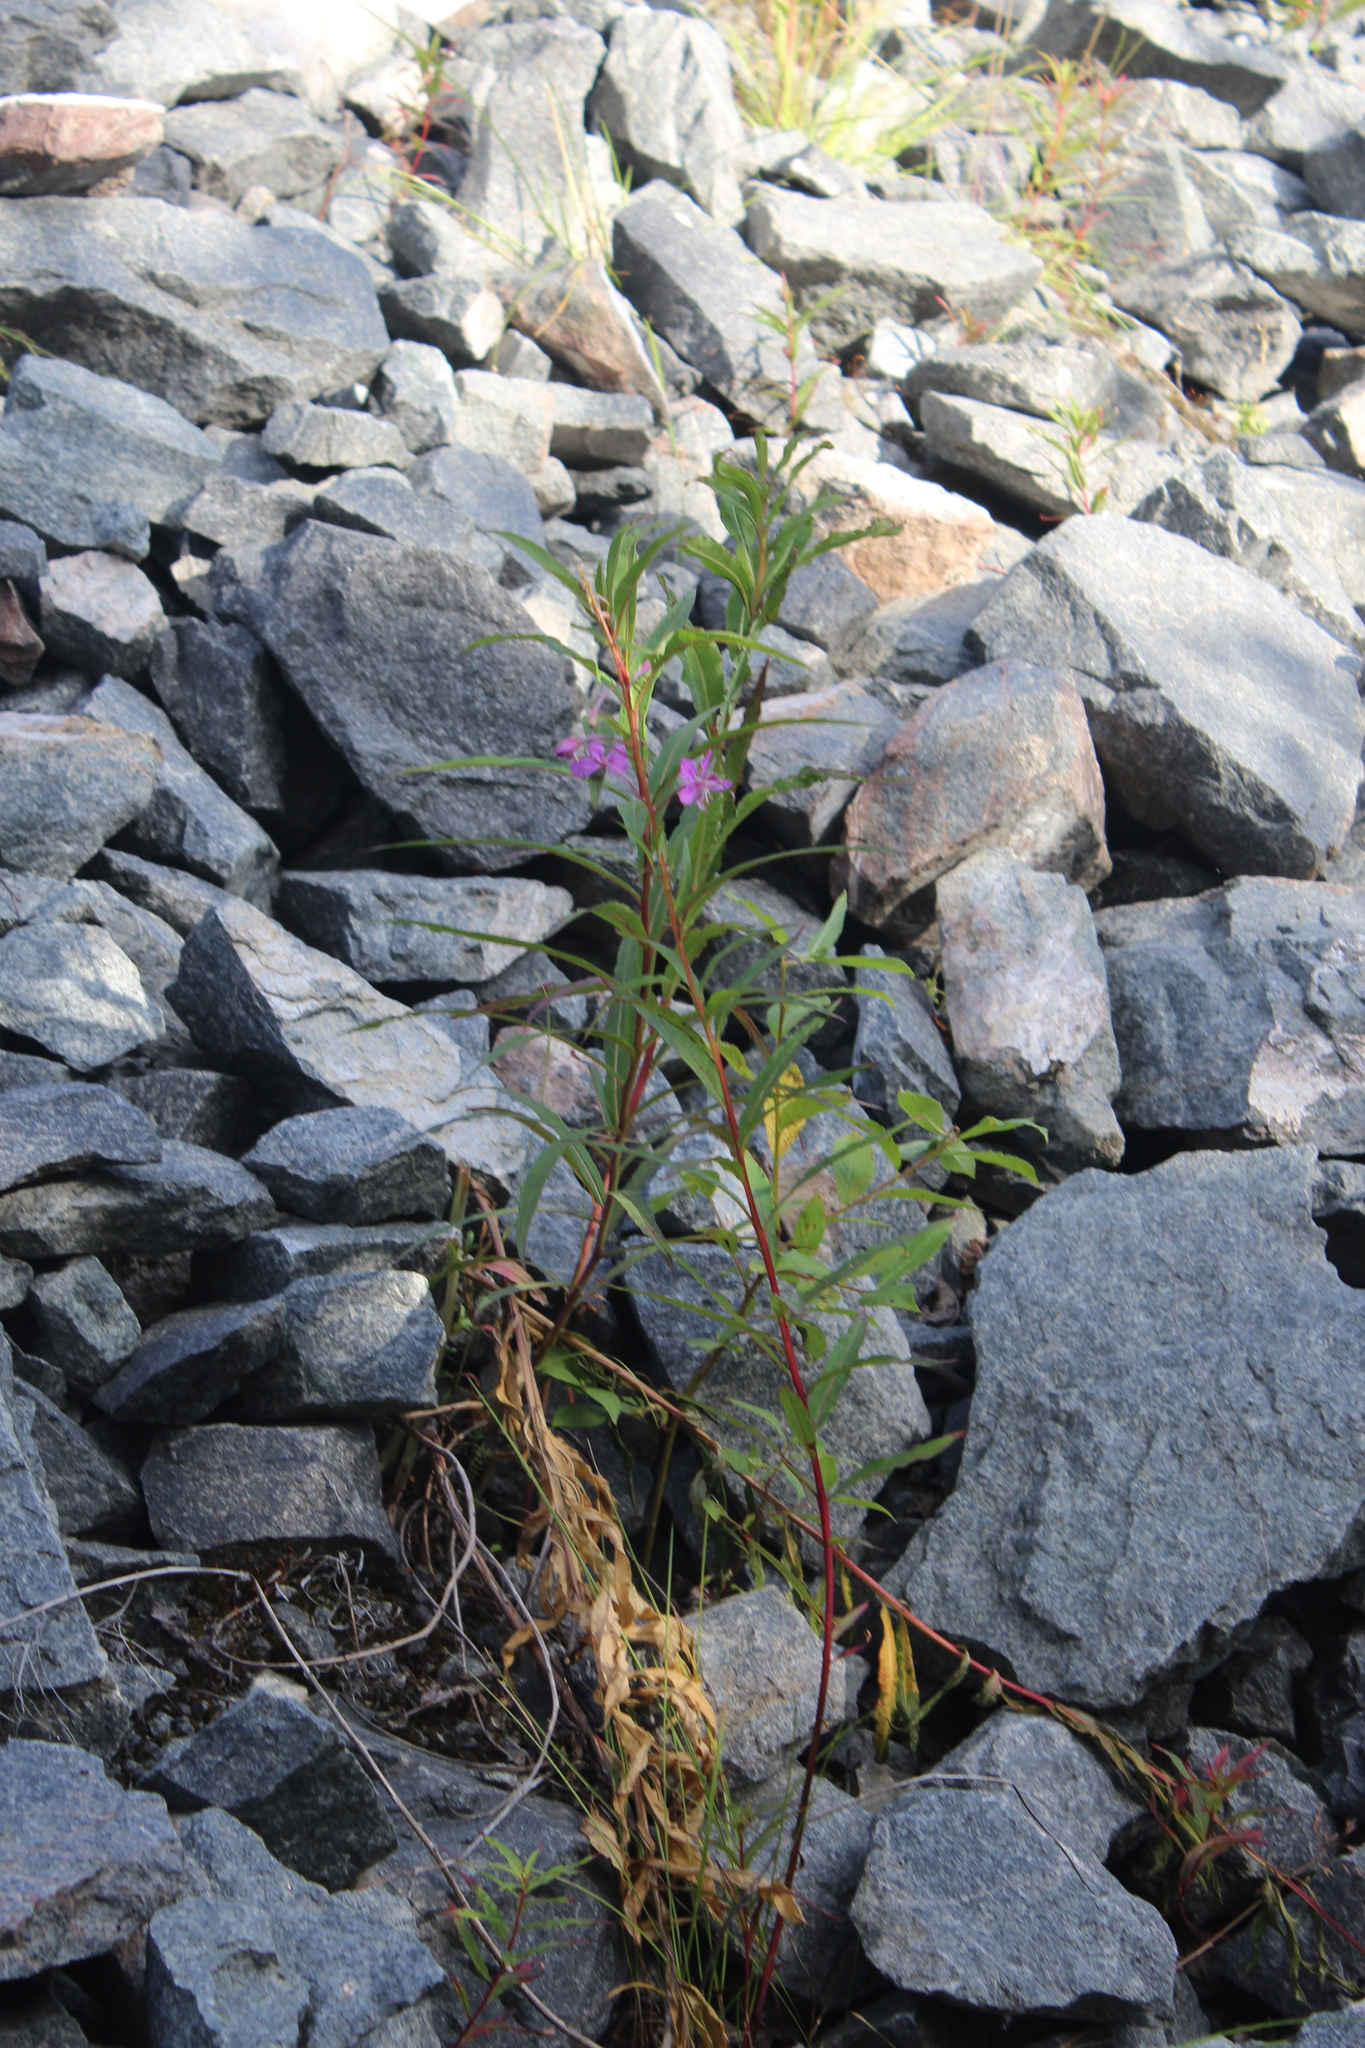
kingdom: Plantae
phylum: Tracheophyta
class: Magnoliopsida
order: Myrtales
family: Onagraceae
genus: Chamaenerion
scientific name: Chamaenerion angustifolium
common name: Fireweed
